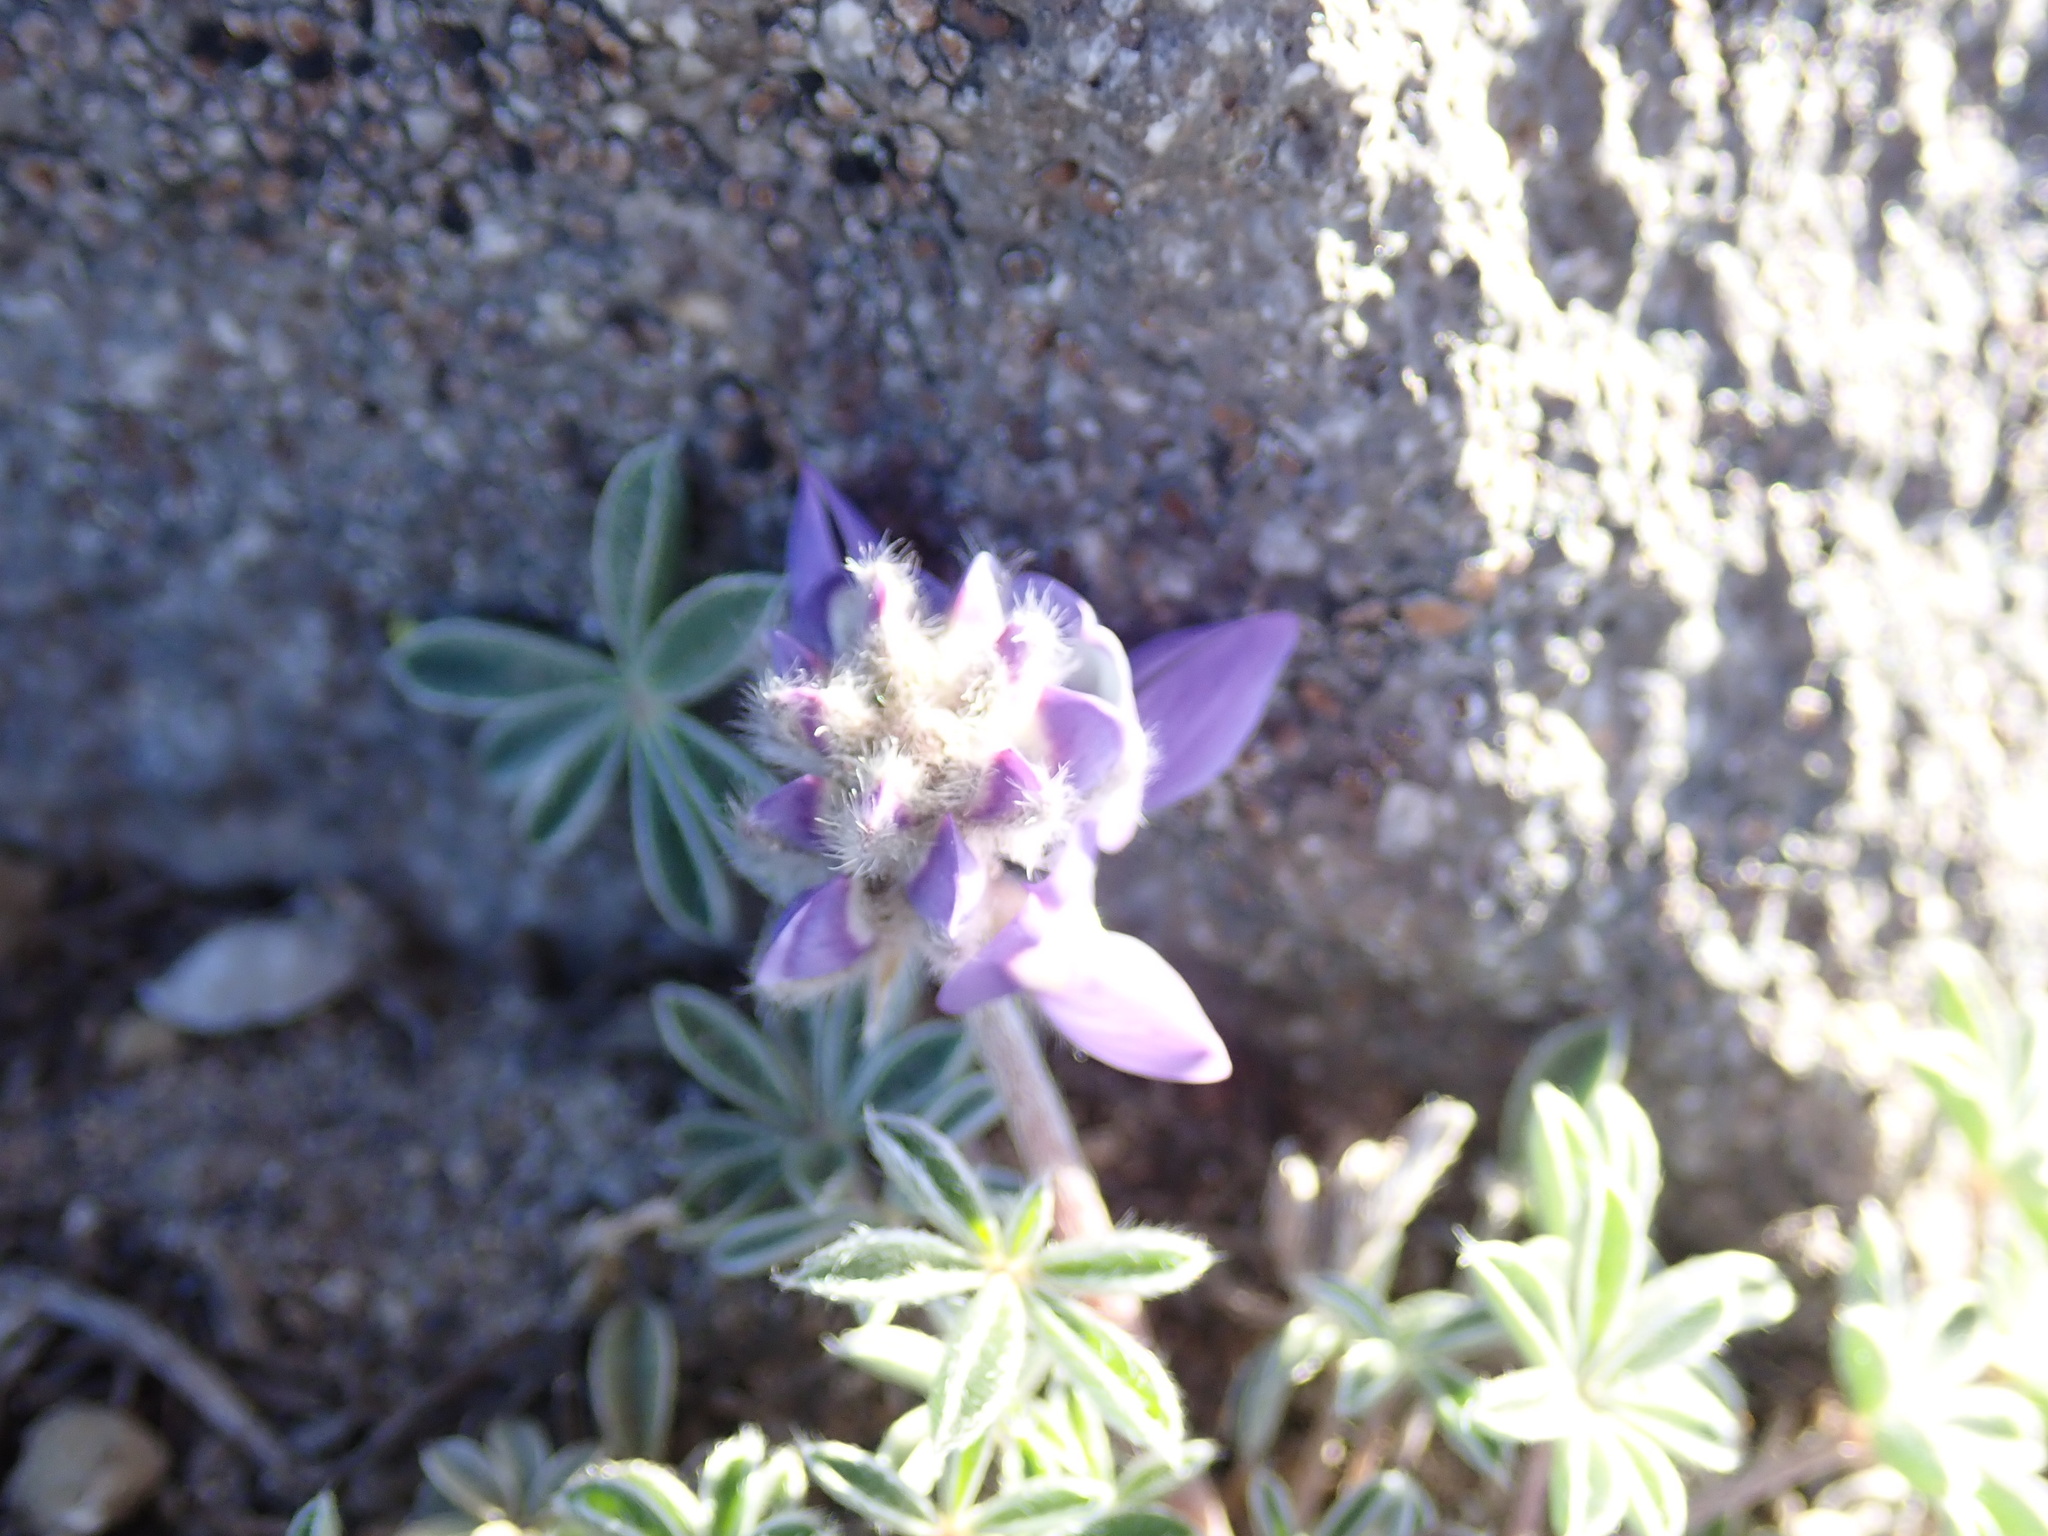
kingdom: Plantae
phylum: Tracheophyta
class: Magnoliopsida
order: Fabales
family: Fabaceae
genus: Lupinus
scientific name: Lupinus sellulus
